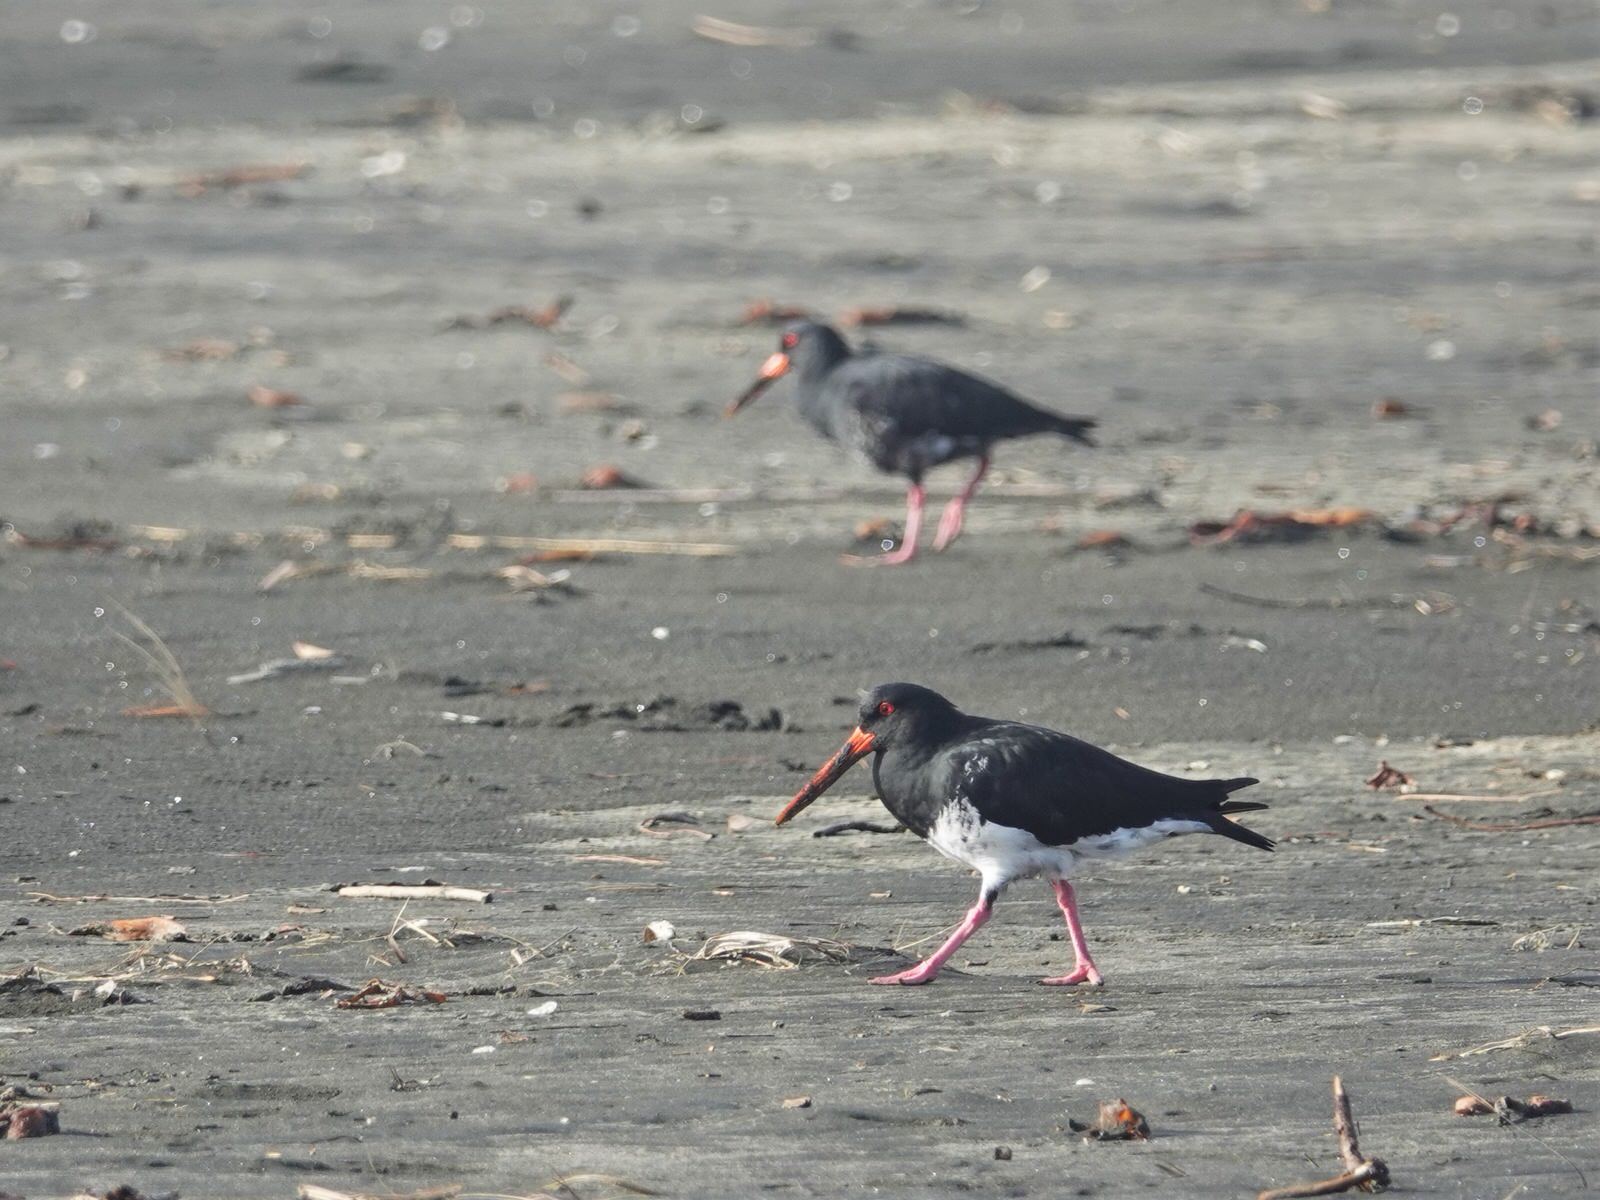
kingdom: Animalia
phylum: Chordata
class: Aves
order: Charadriiformes
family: Haematopodidae
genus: Haematopus
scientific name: Haematopus unicolor
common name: Variable oystercatcher
